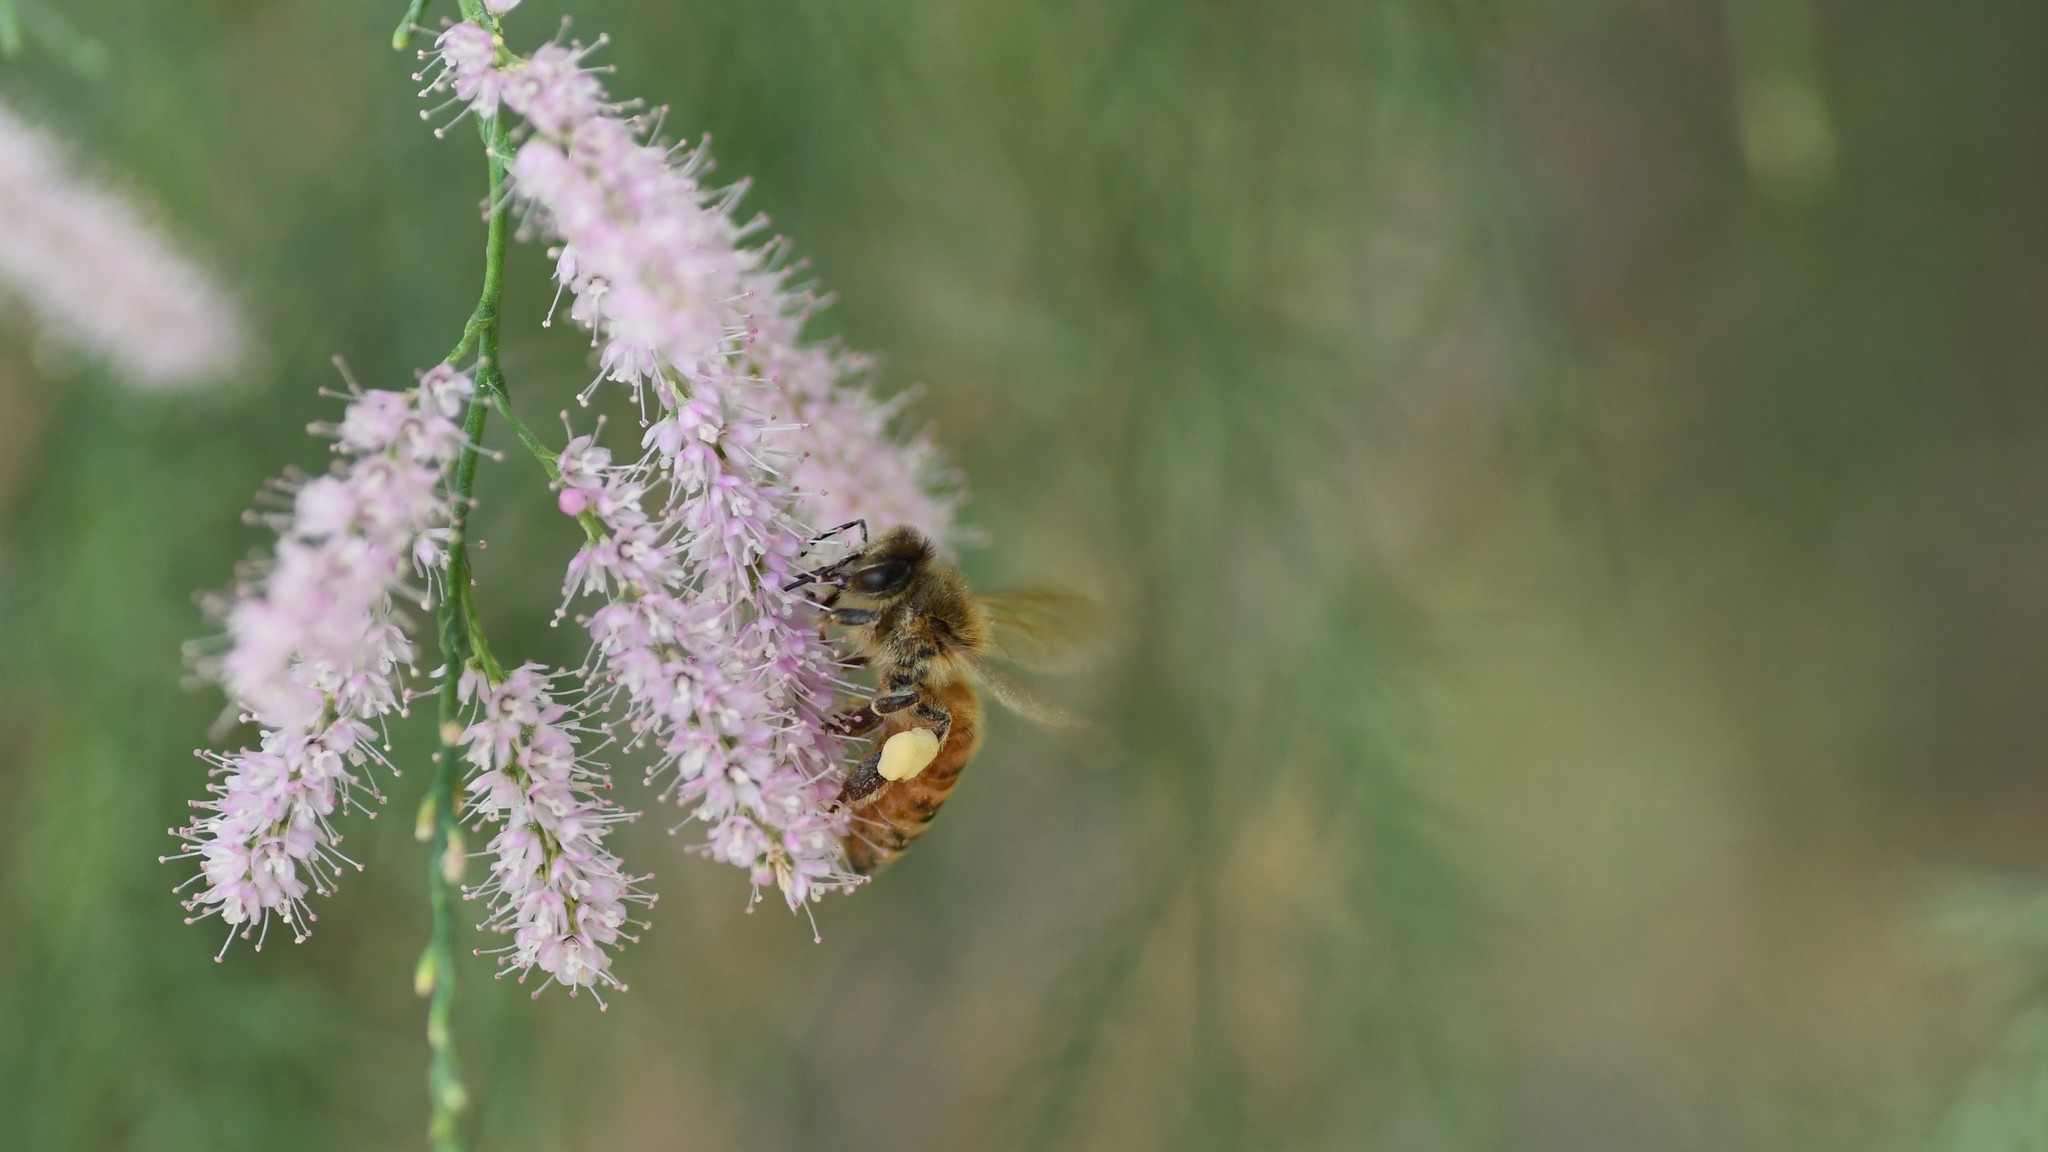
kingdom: Animalia
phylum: Arthropoda
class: Insecta
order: Hymenoptera
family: Apidae
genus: Apis
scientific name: Apis mellifera
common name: Honey bee
